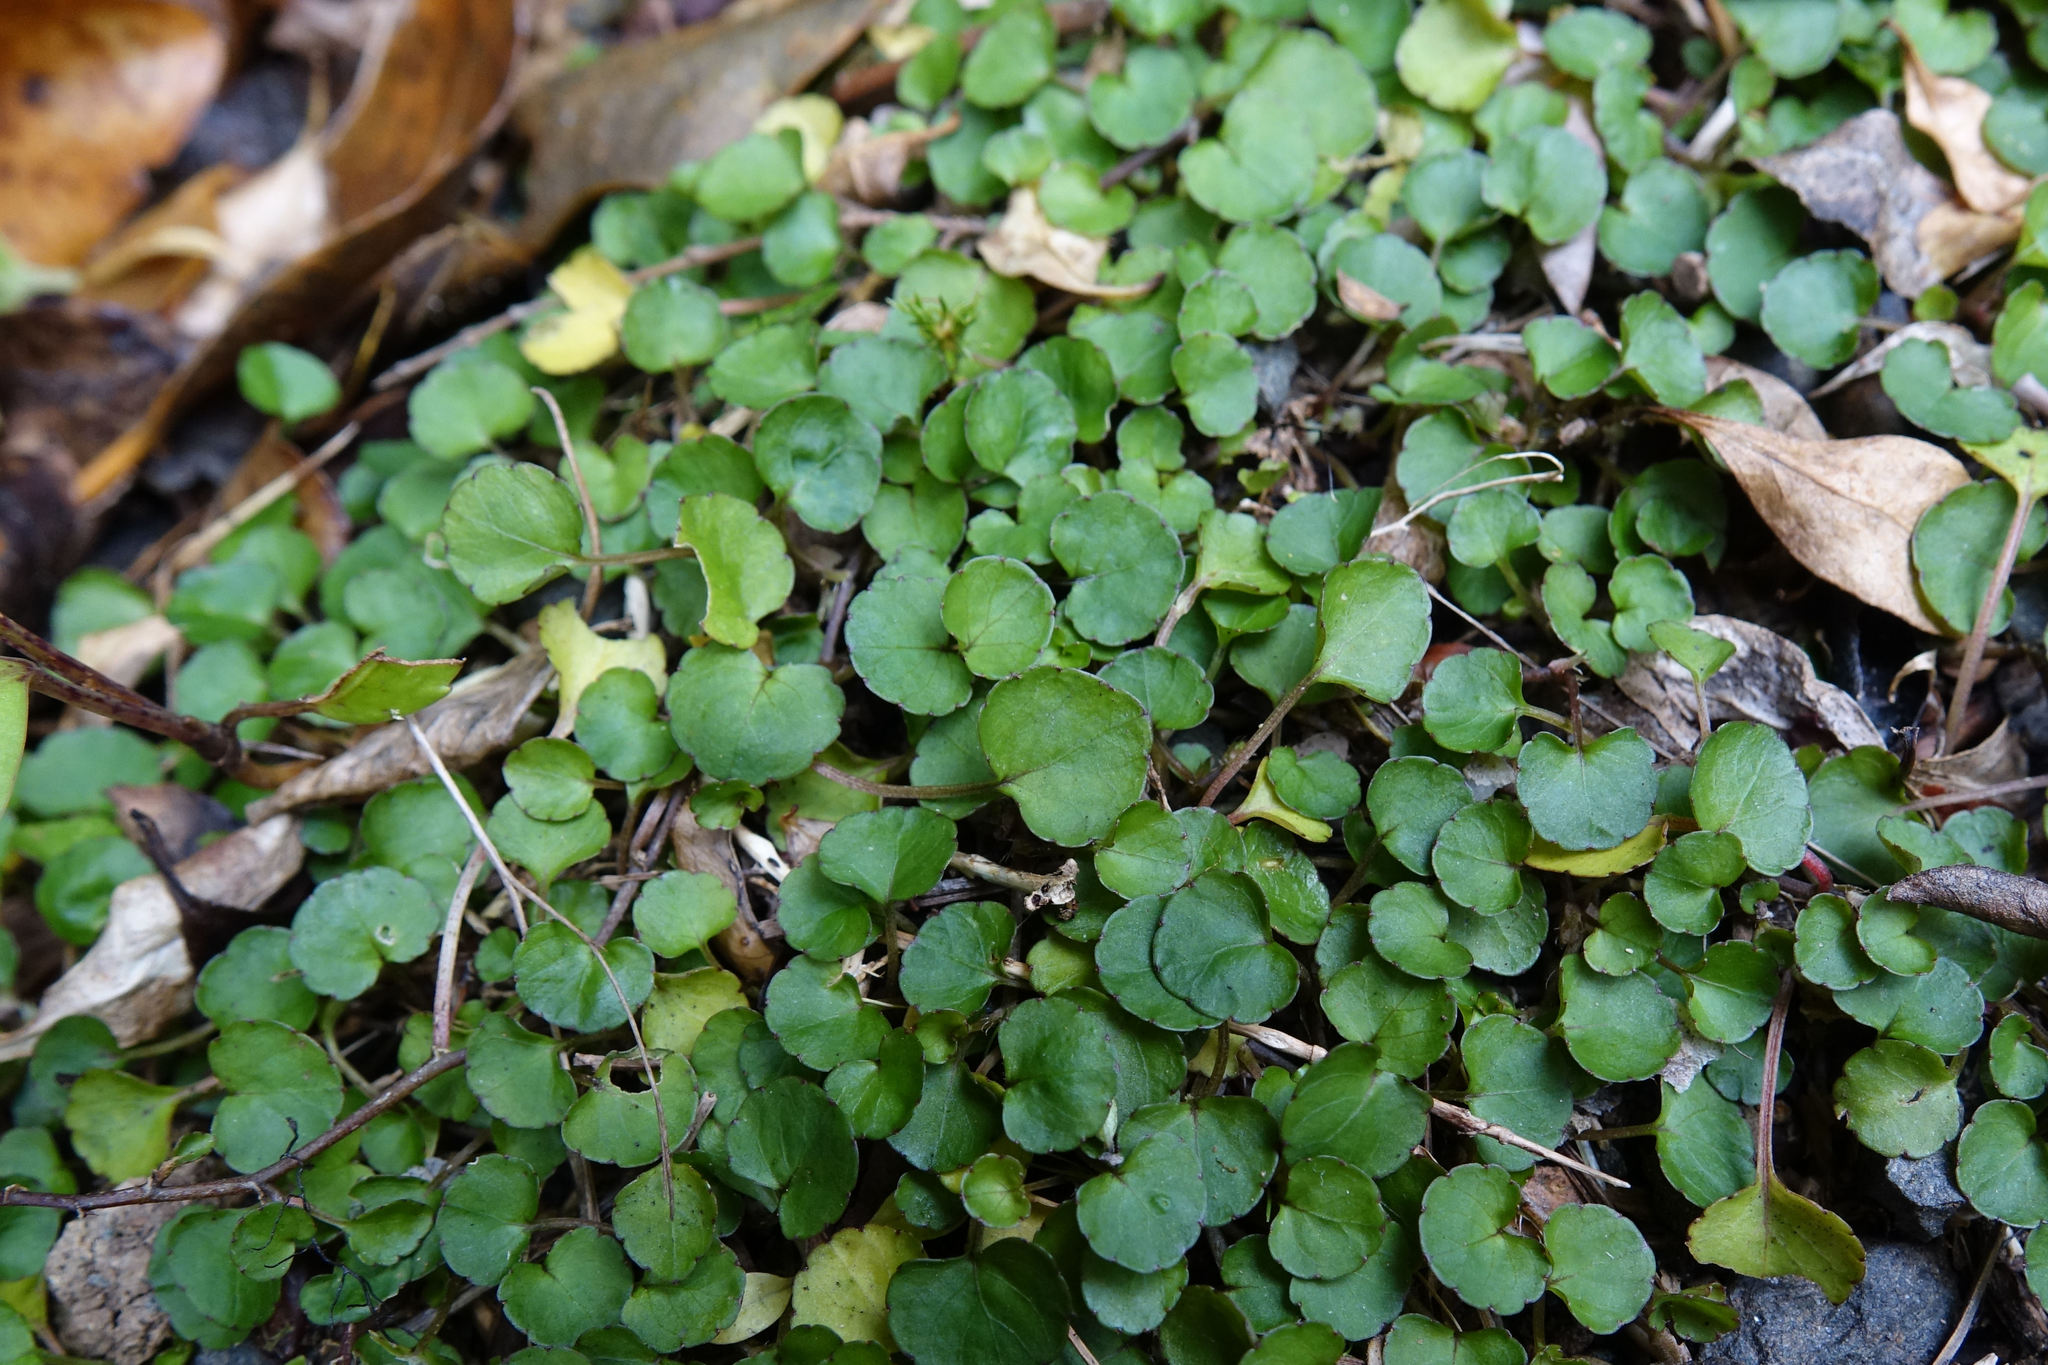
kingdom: Plantae
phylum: Tracheophyta
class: Magnoliopsida
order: Malpighiales
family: Violaceae
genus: Viola
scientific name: Viola filicaulis
